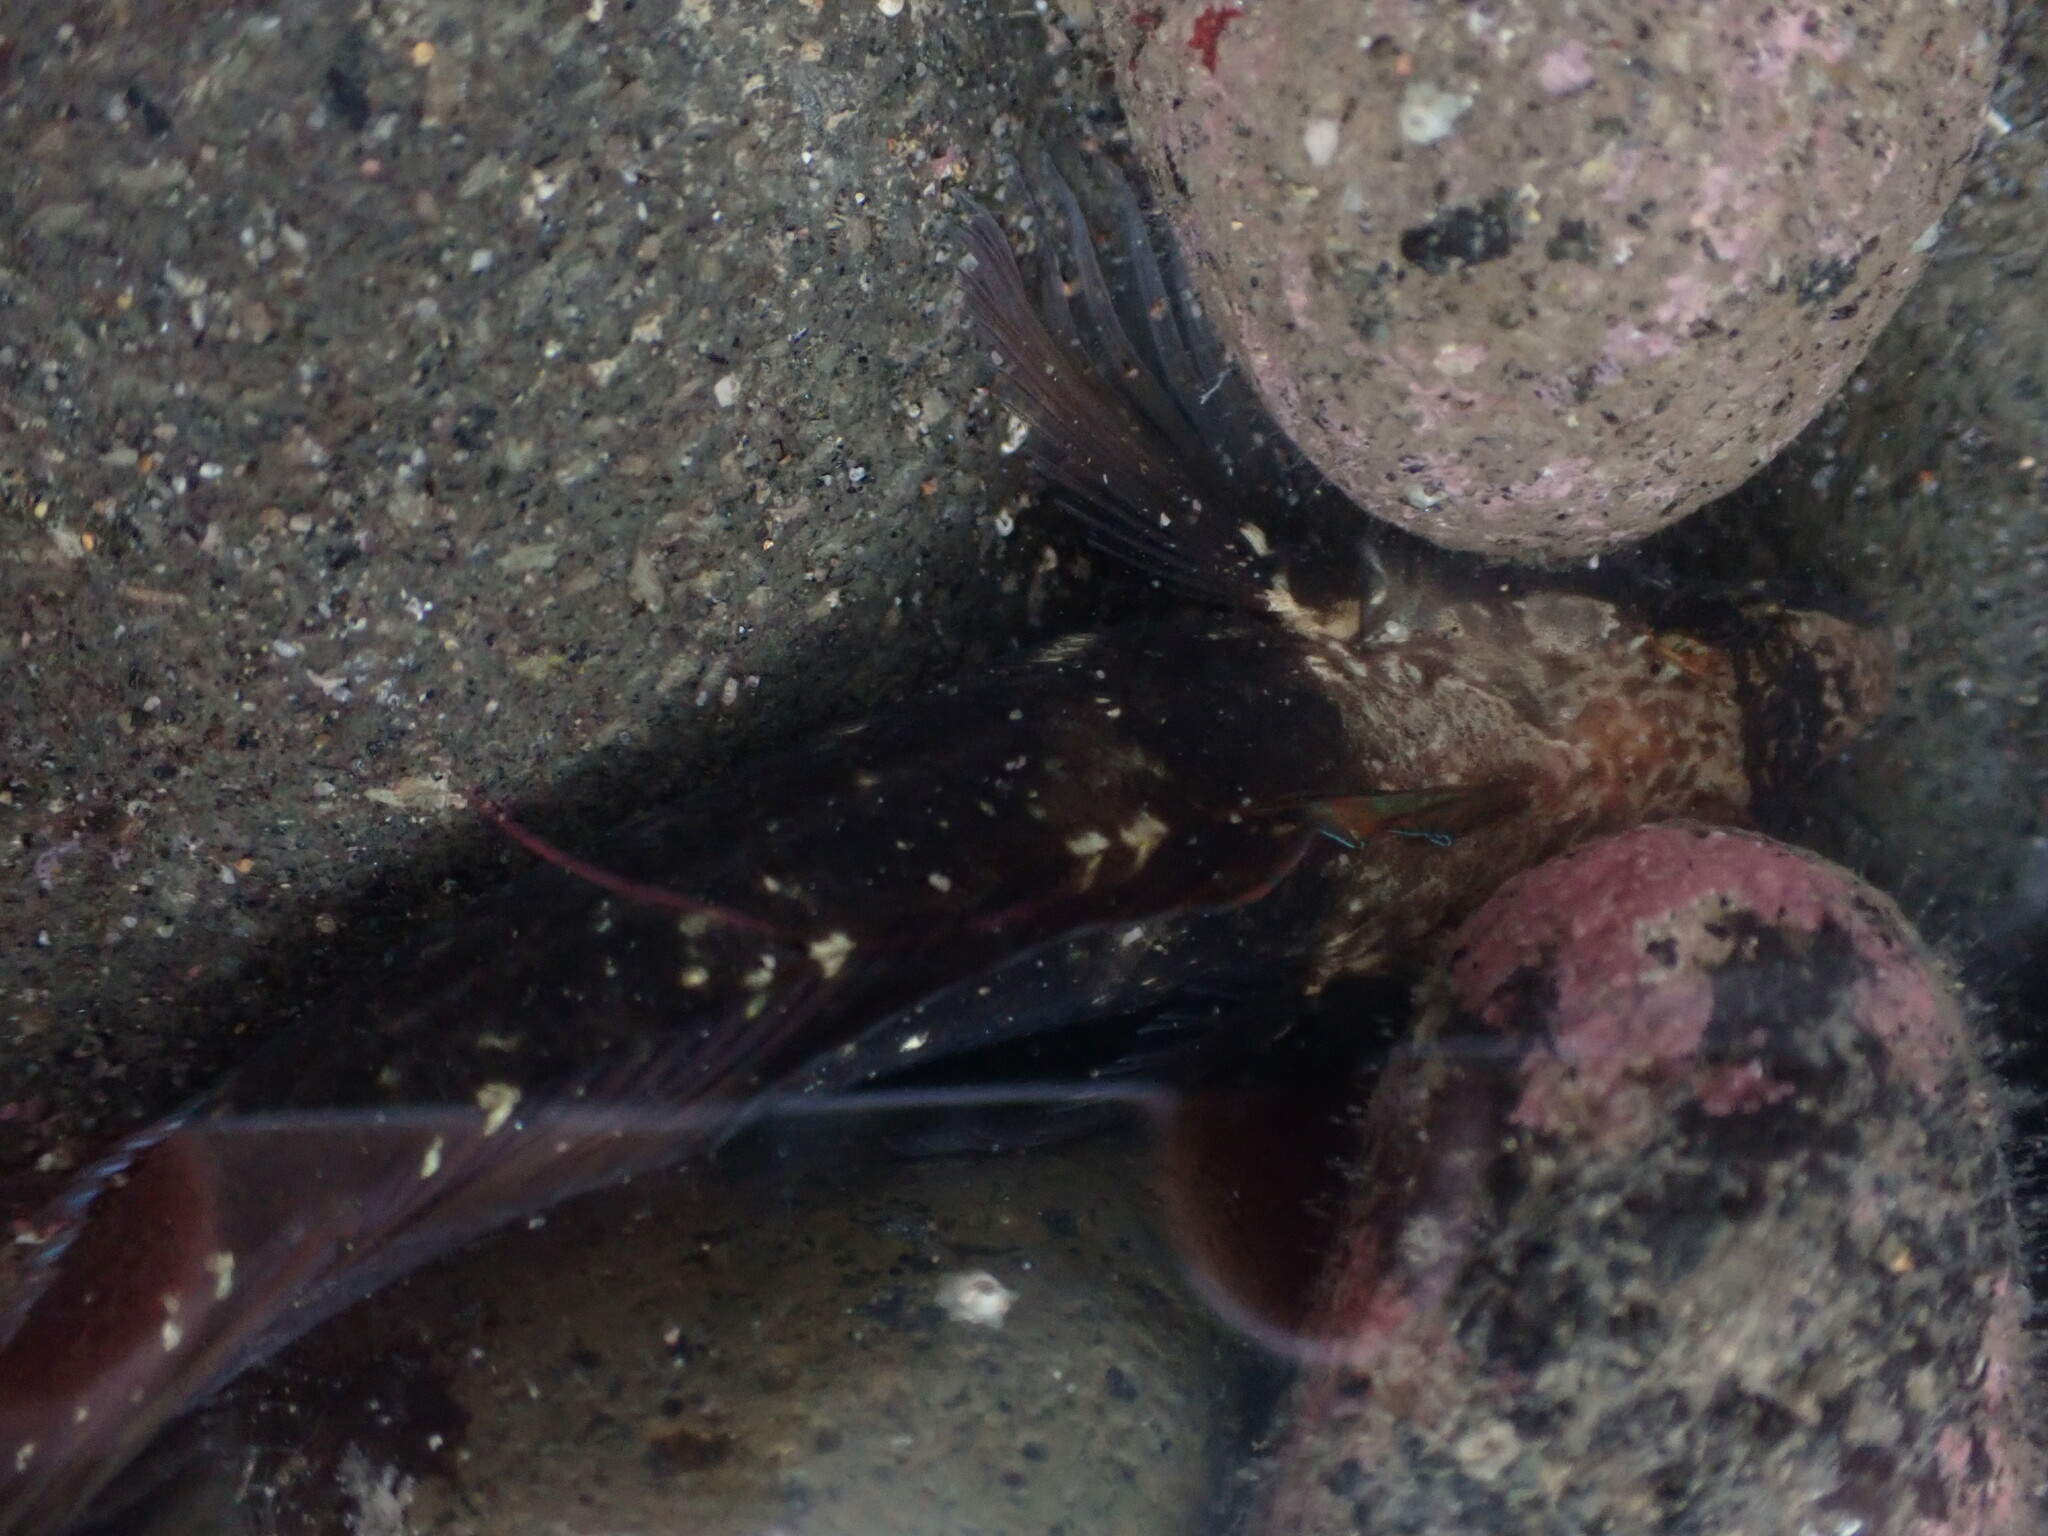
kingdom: Animalia
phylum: Chordata
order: Perciformes
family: Tripterygiidae
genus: Ruanoho
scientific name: Ruanoho decemdigitatus
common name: Longfinned triplefin
